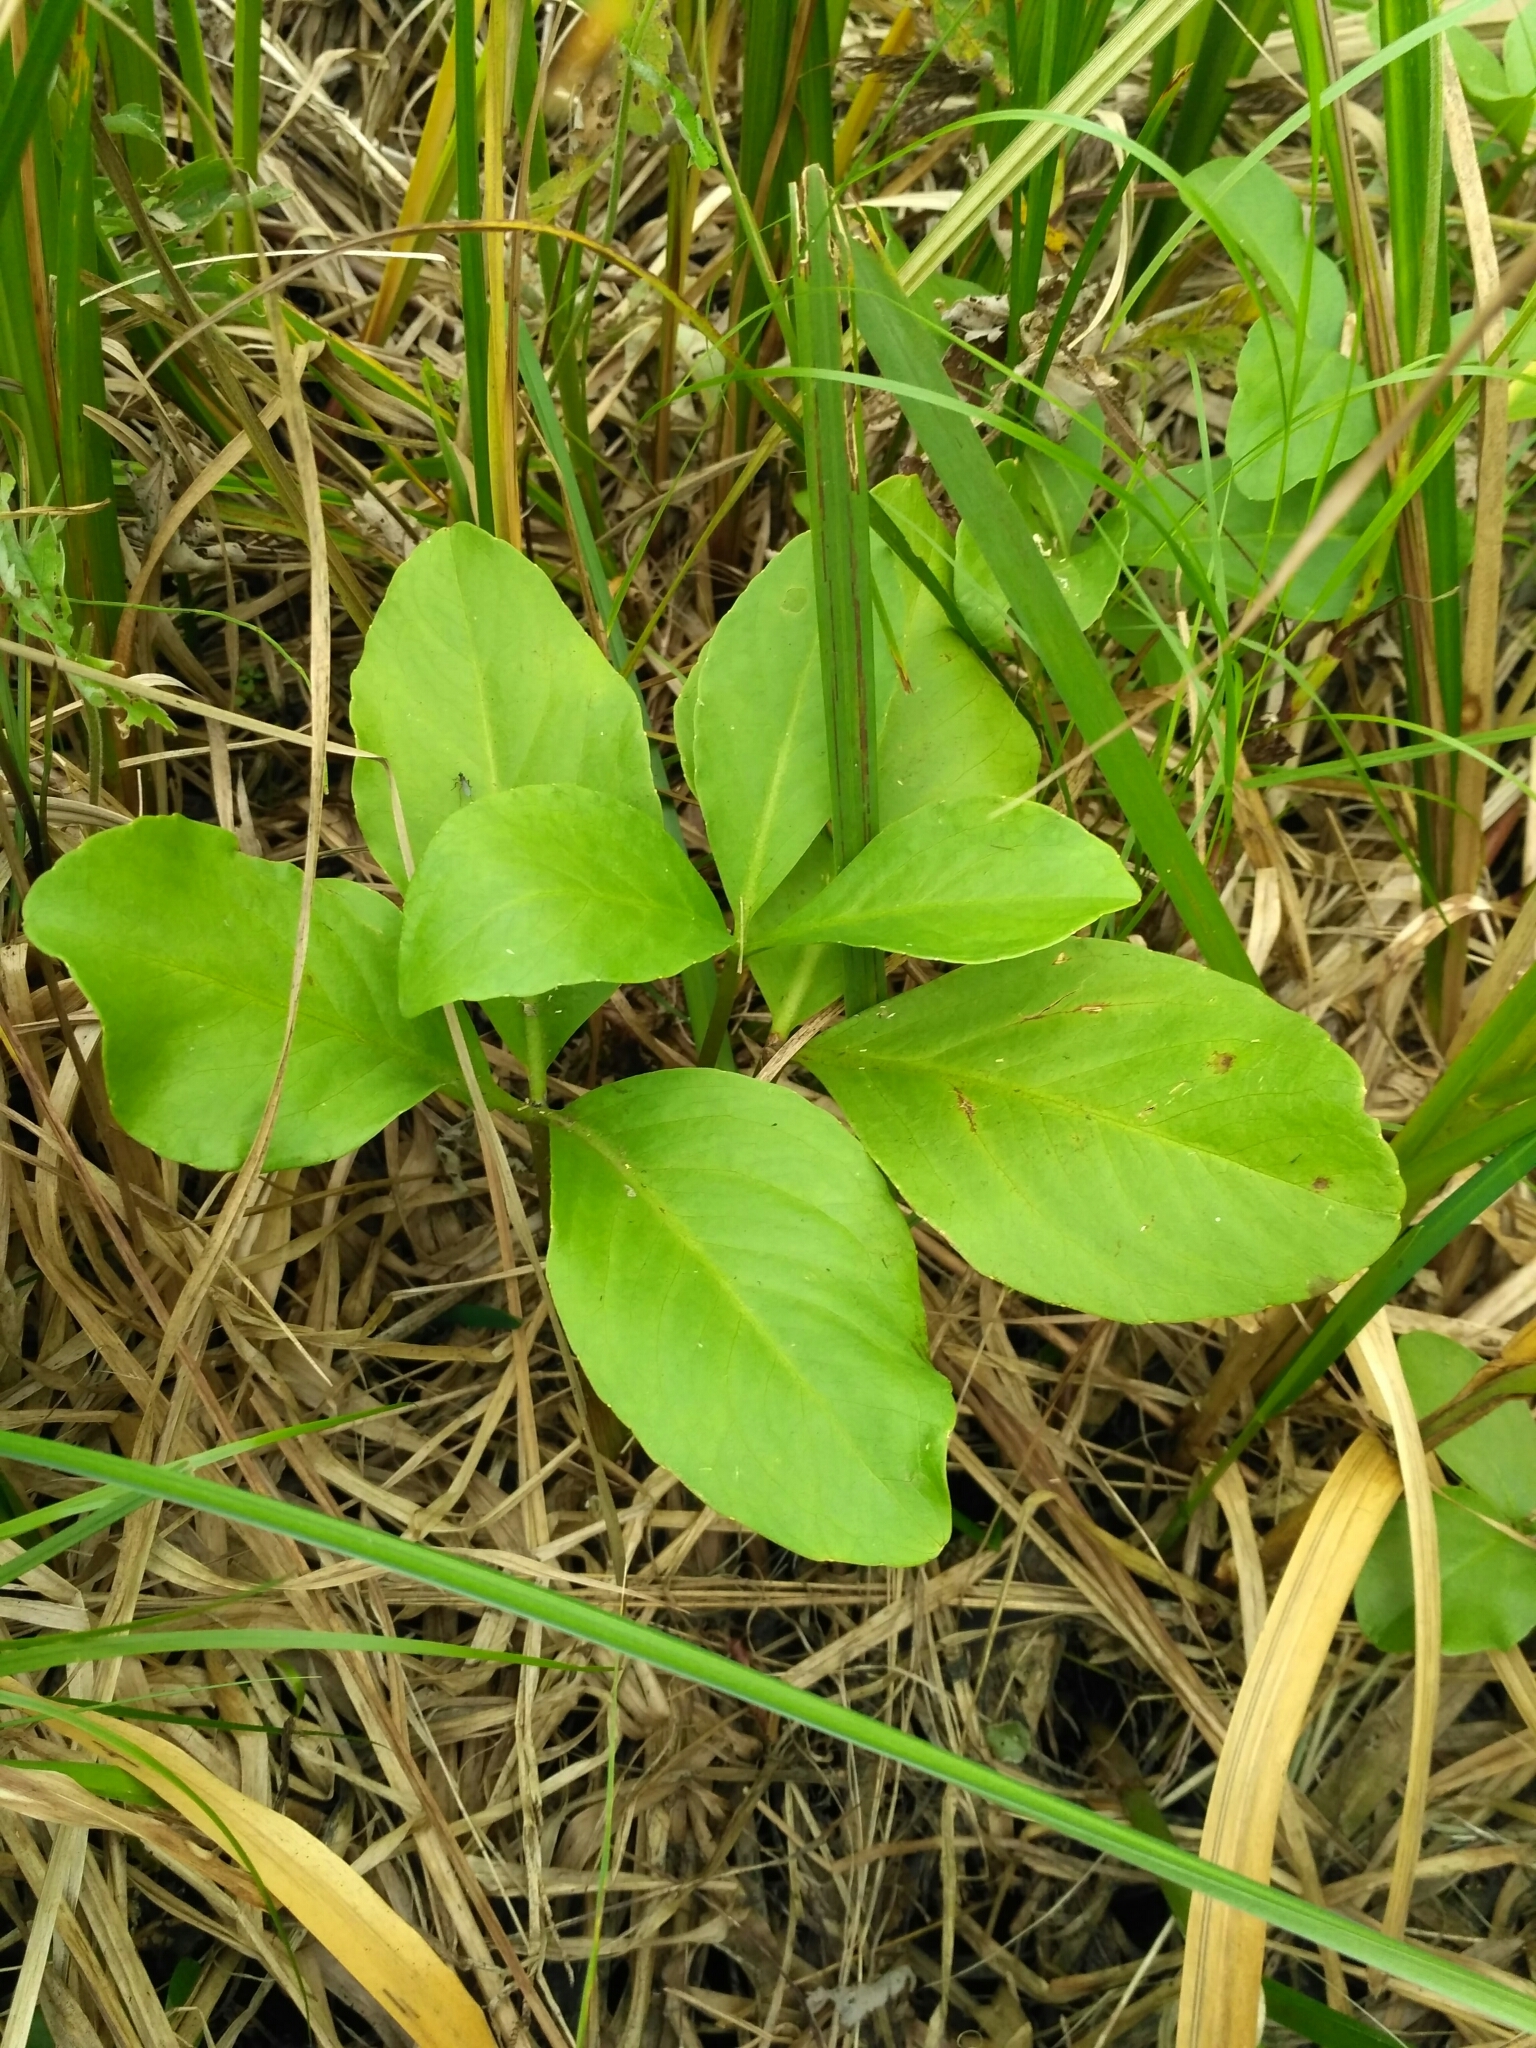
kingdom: Plantae
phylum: Tracheophyta
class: Magnoliopsida
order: Asterales
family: Menyanthaceae
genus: Menyanthes
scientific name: Menyanthes trifoliata
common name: Bogbean
